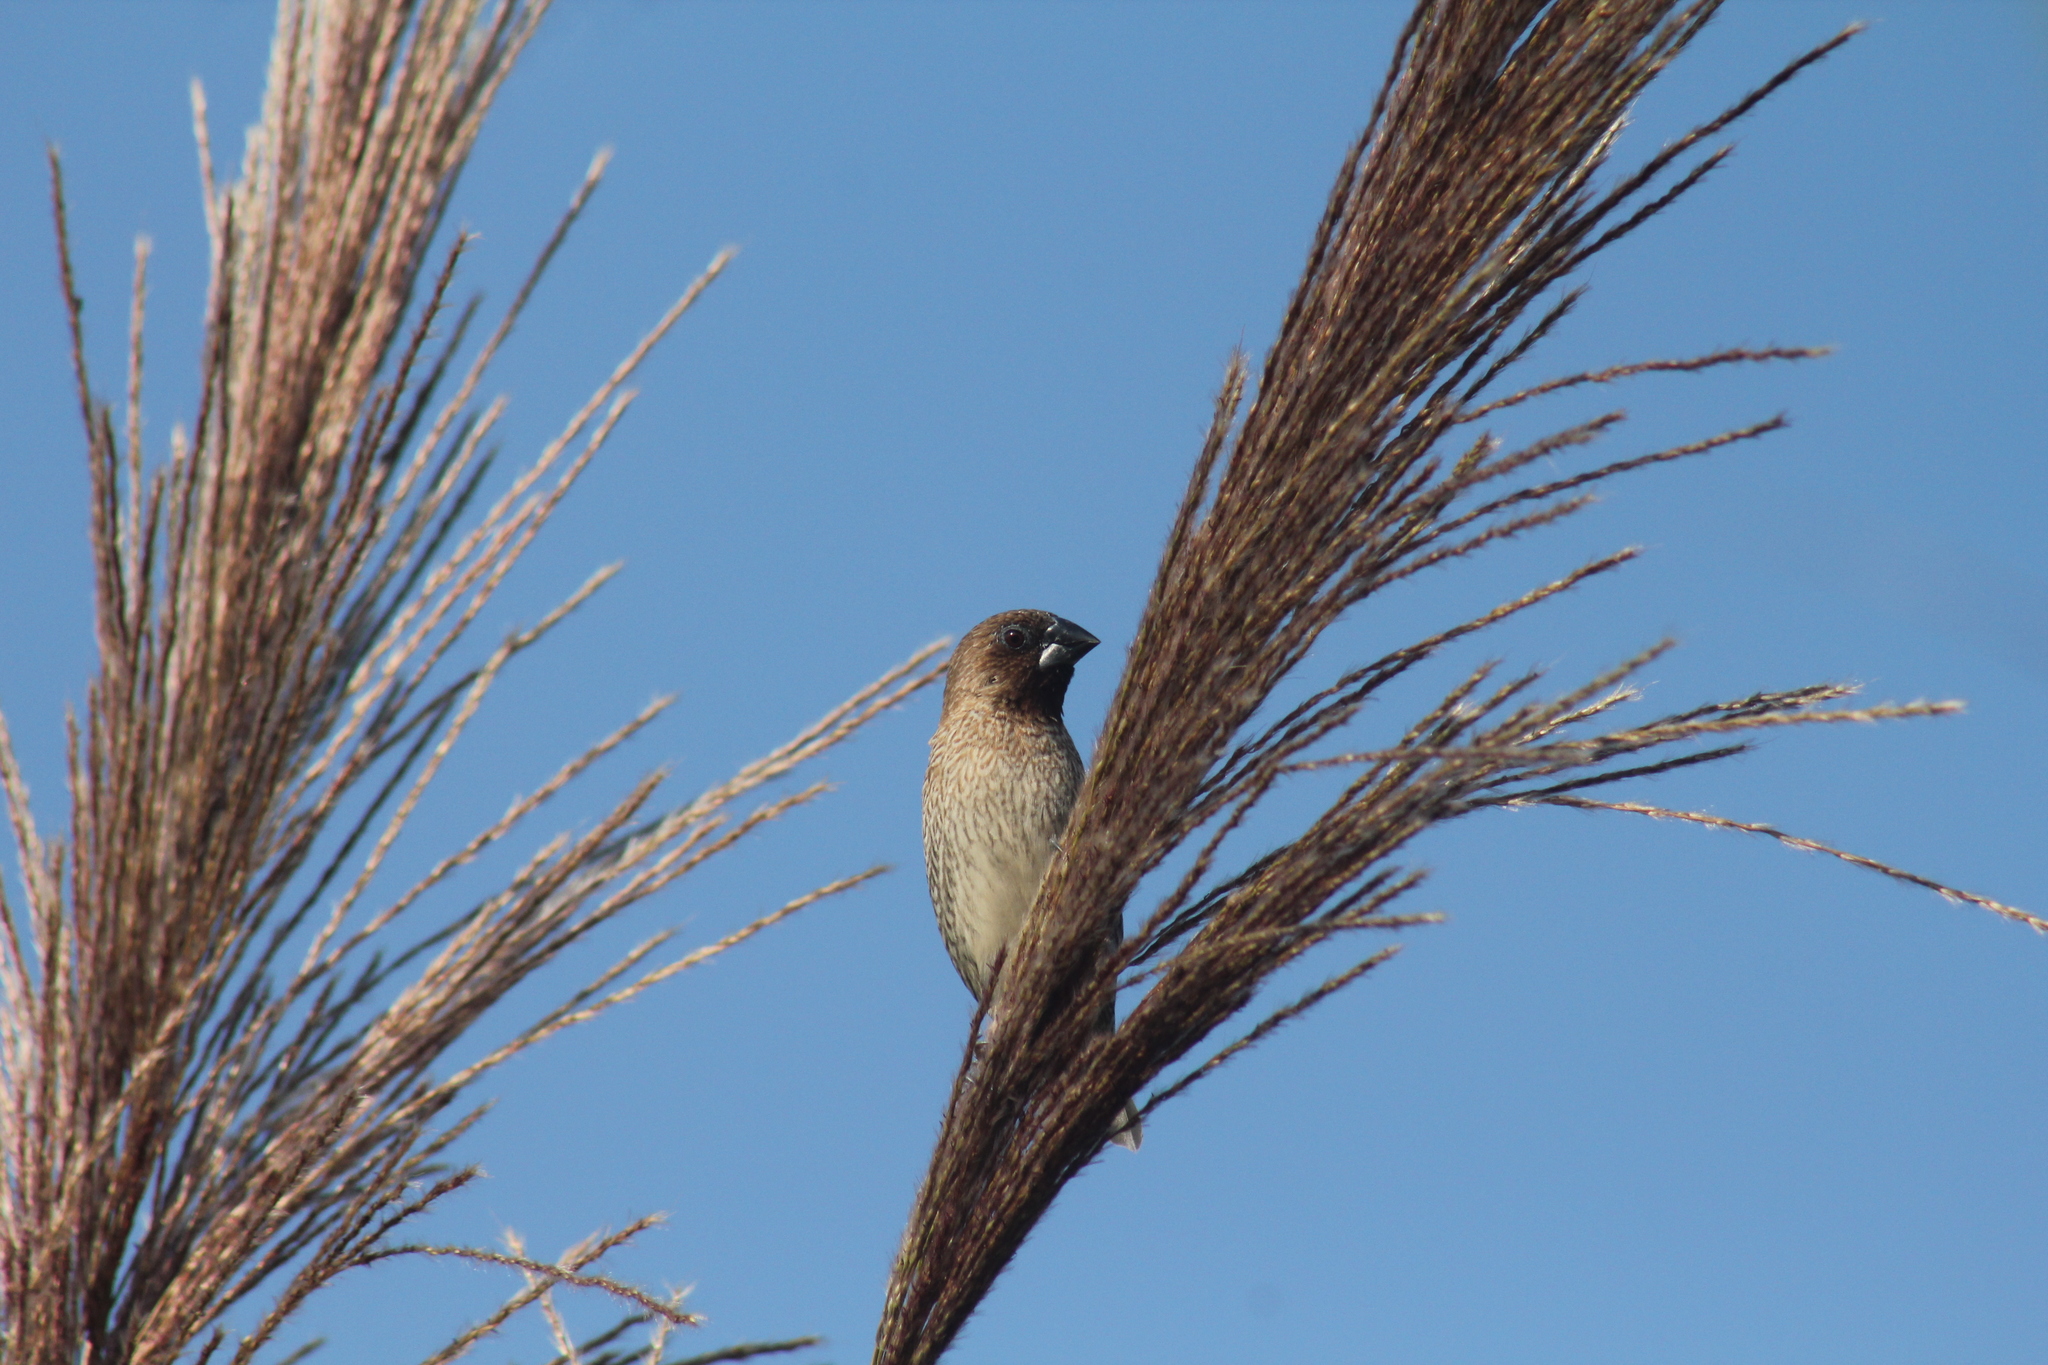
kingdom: Animalia
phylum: Chordata
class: Aves
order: Passeriformes
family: Estrildidae
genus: Lonchura
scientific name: Lonchura punctulata
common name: Scaly-breasted munia
